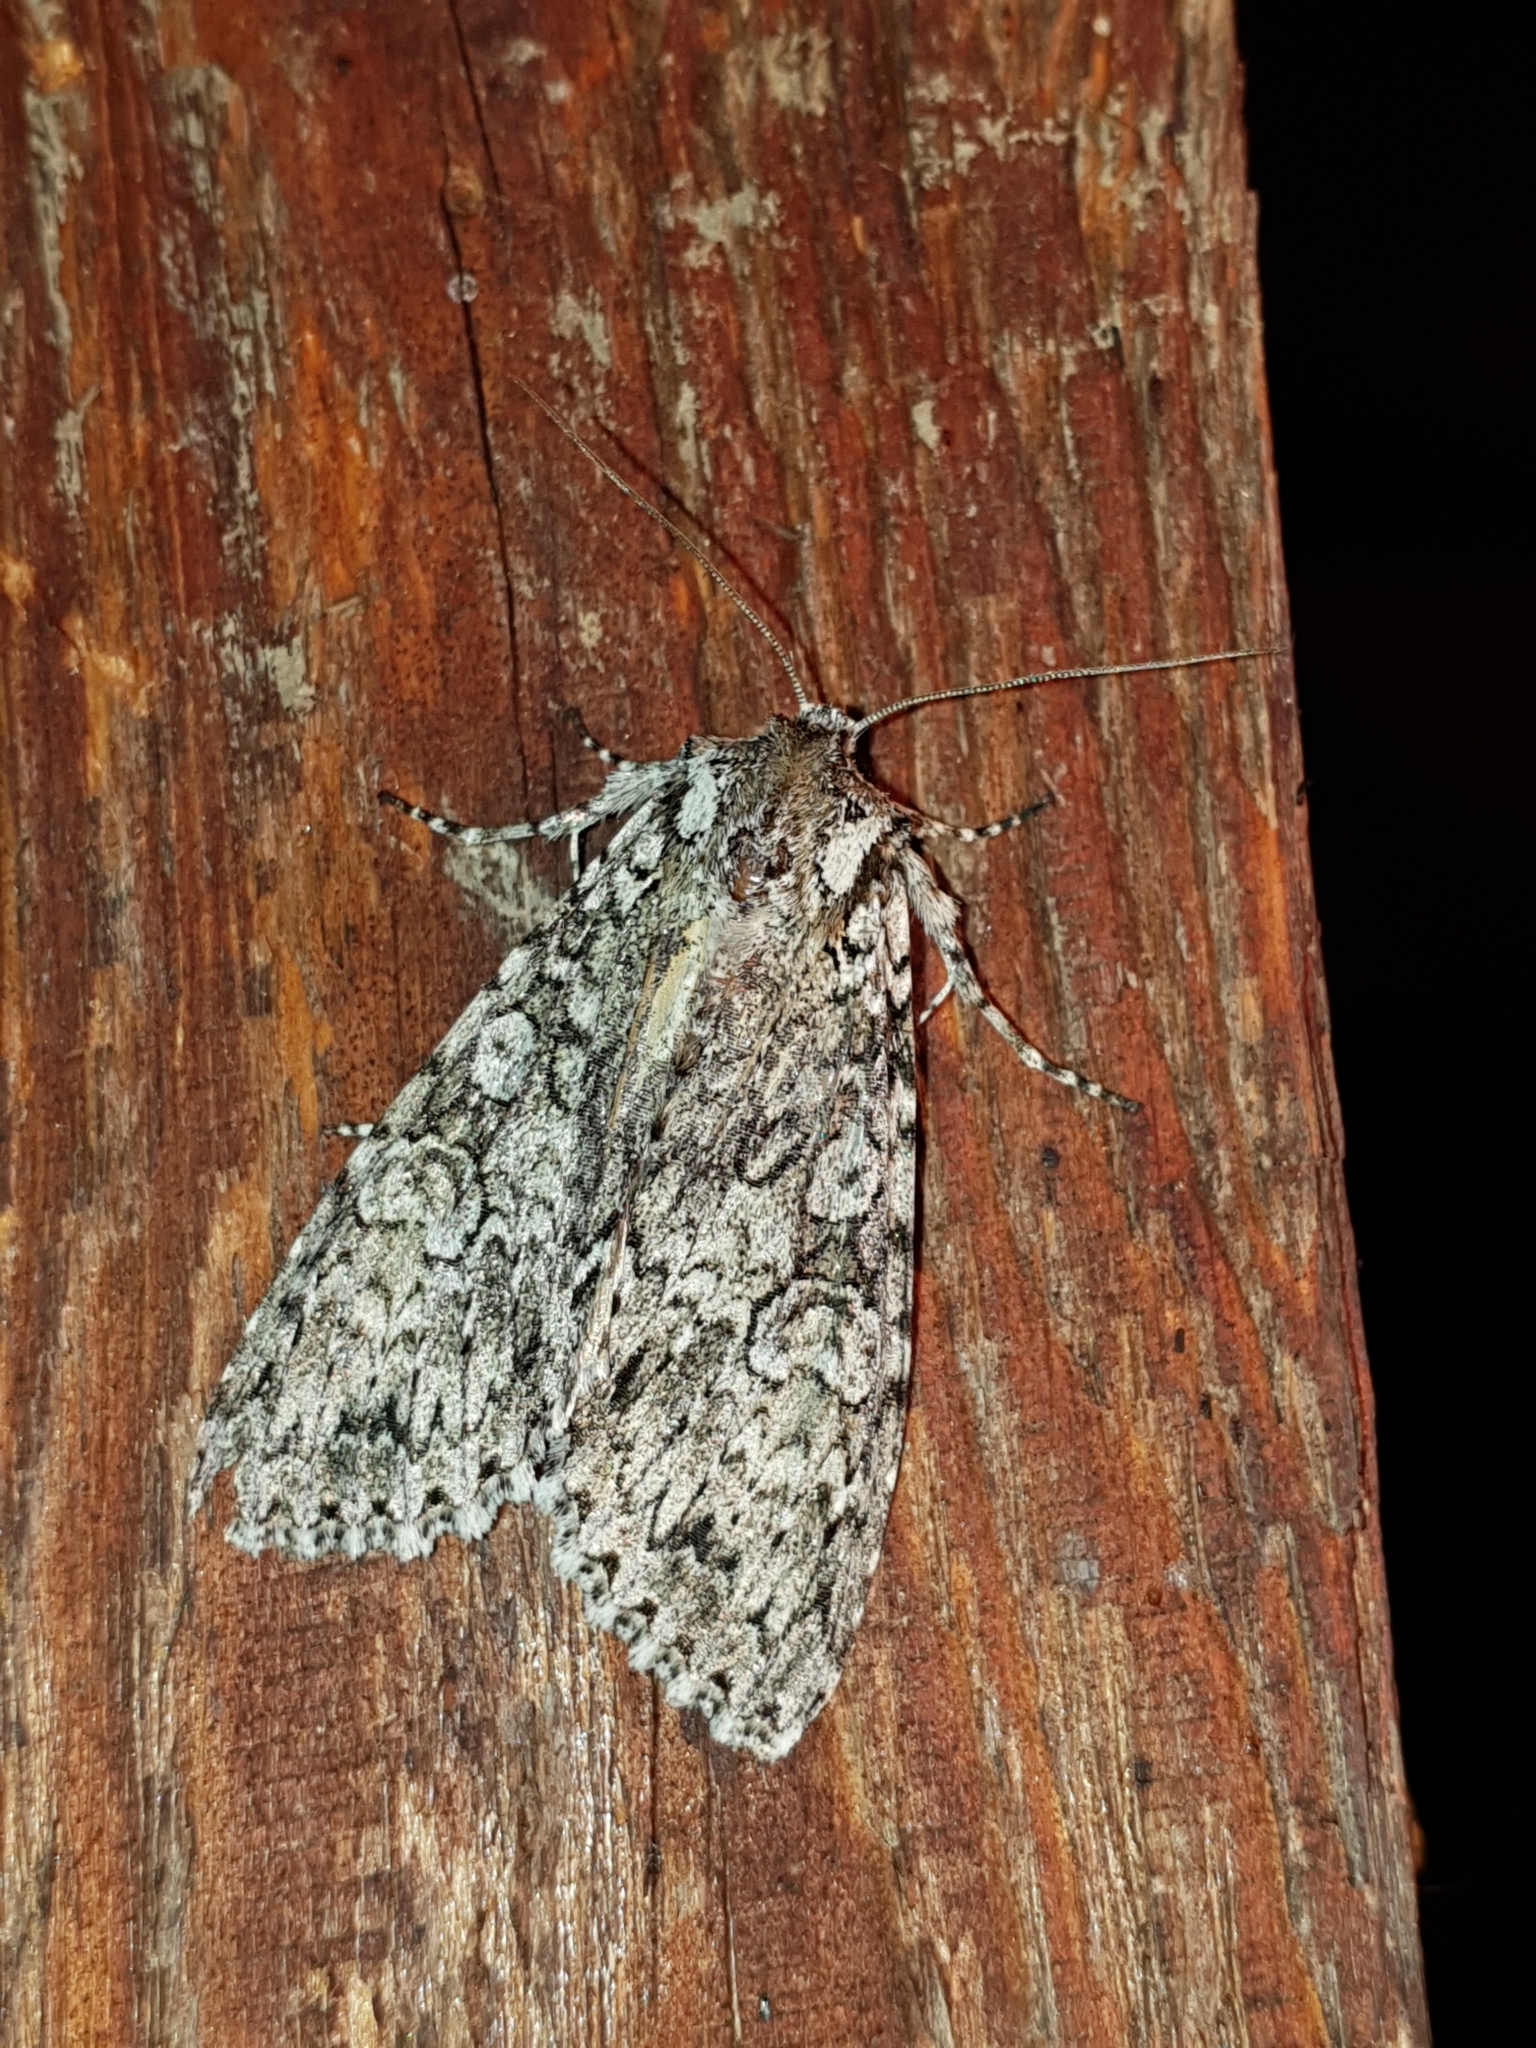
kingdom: Animalia
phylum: Arthropoda
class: Insecta
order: Lepidoptera
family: Noctuidae
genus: Polia
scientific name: Polia nebulosa
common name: Grey arches
